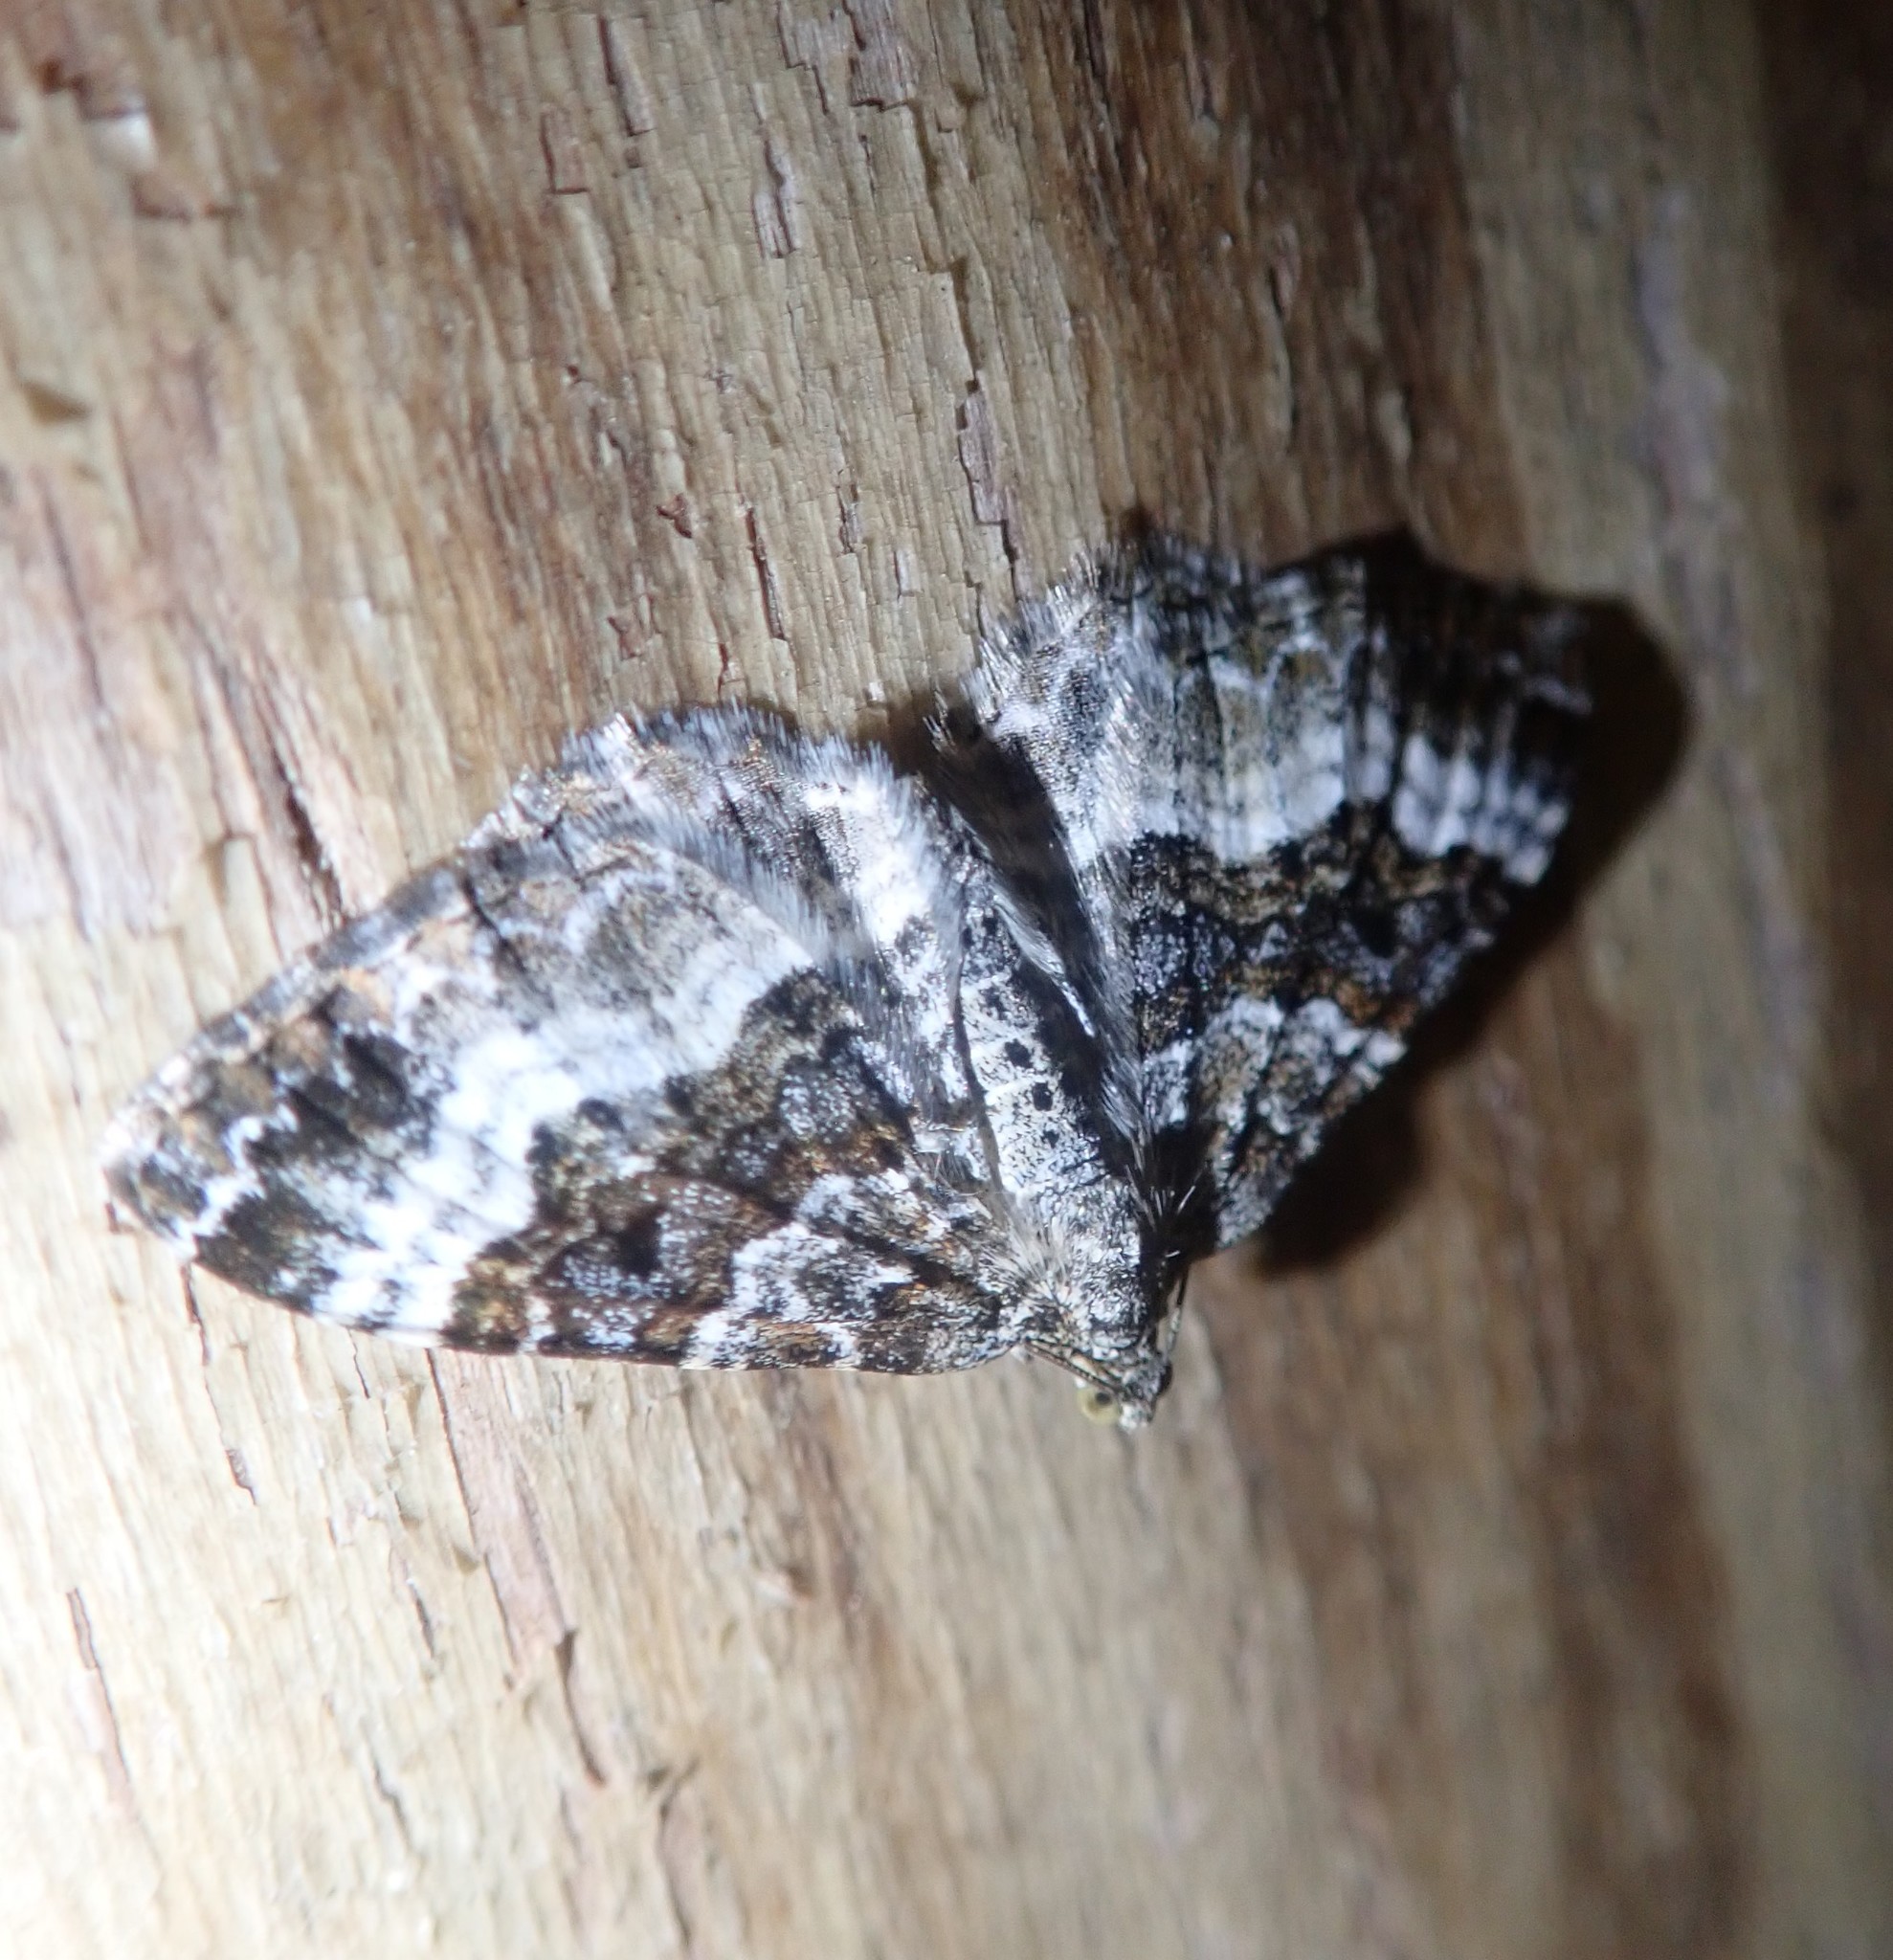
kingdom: Animalia
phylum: Arthropoda
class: Insecta
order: Lepidoptera
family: Geometridae
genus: Epirrhoe
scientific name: Epirrhoe alternata
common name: Common carpet
